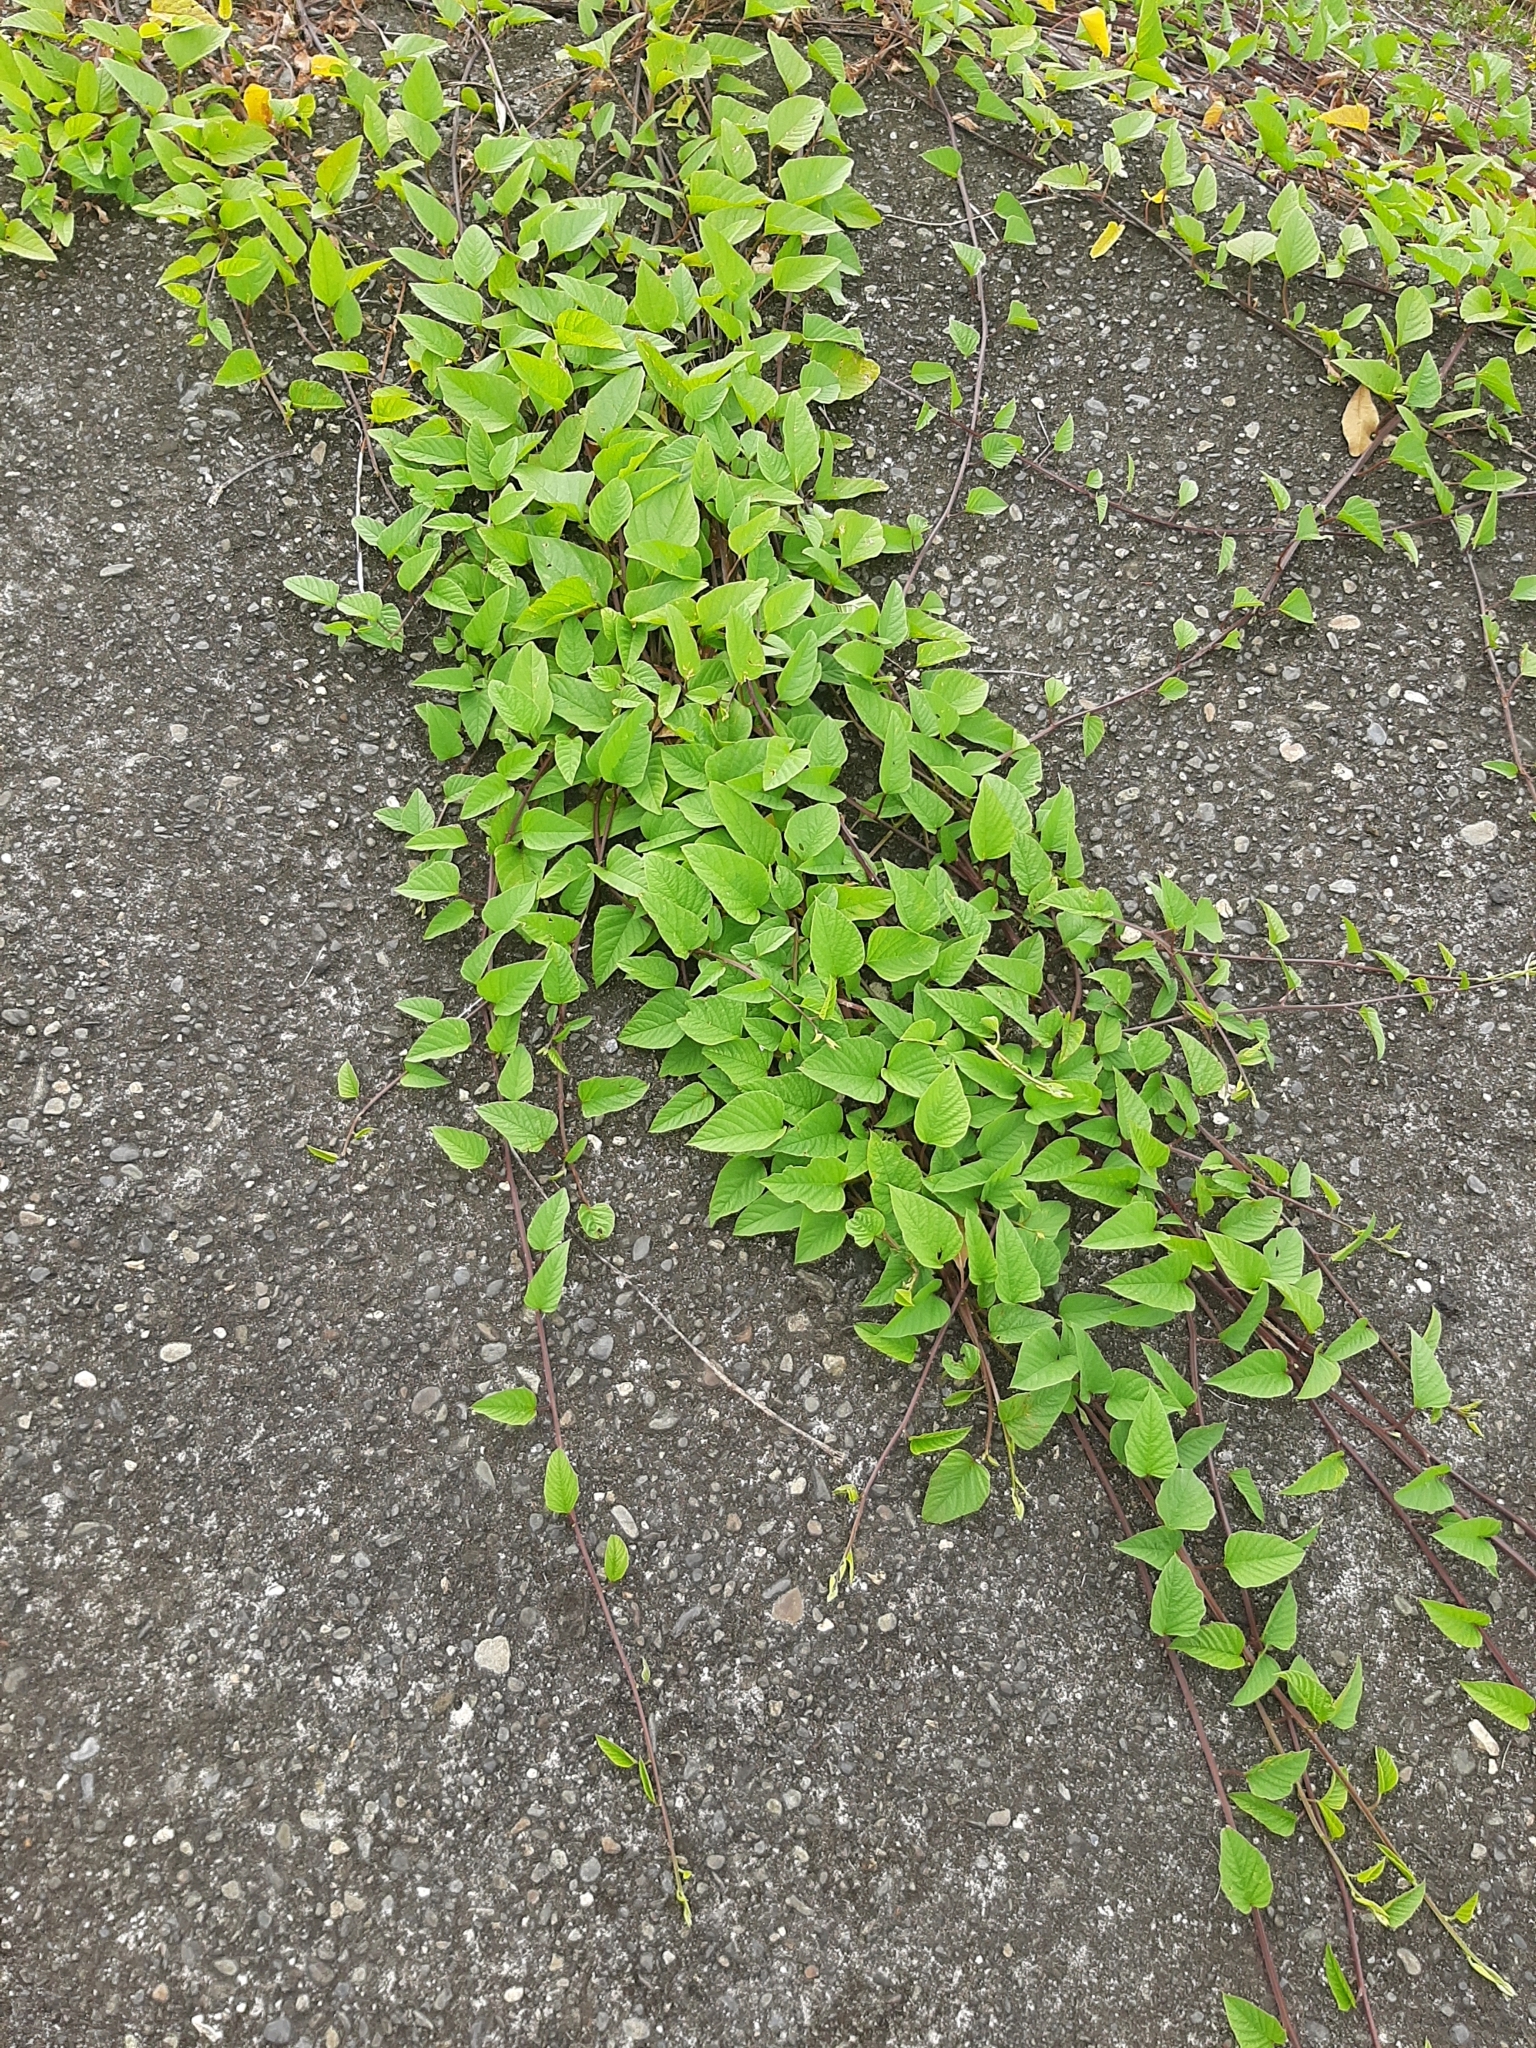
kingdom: Plantae
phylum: Tracheophyta
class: Magnoliopsida
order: Solanales
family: Convolvulaceae
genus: Operculina
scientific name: Operculina turpethum
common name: Transparent wood-rose
